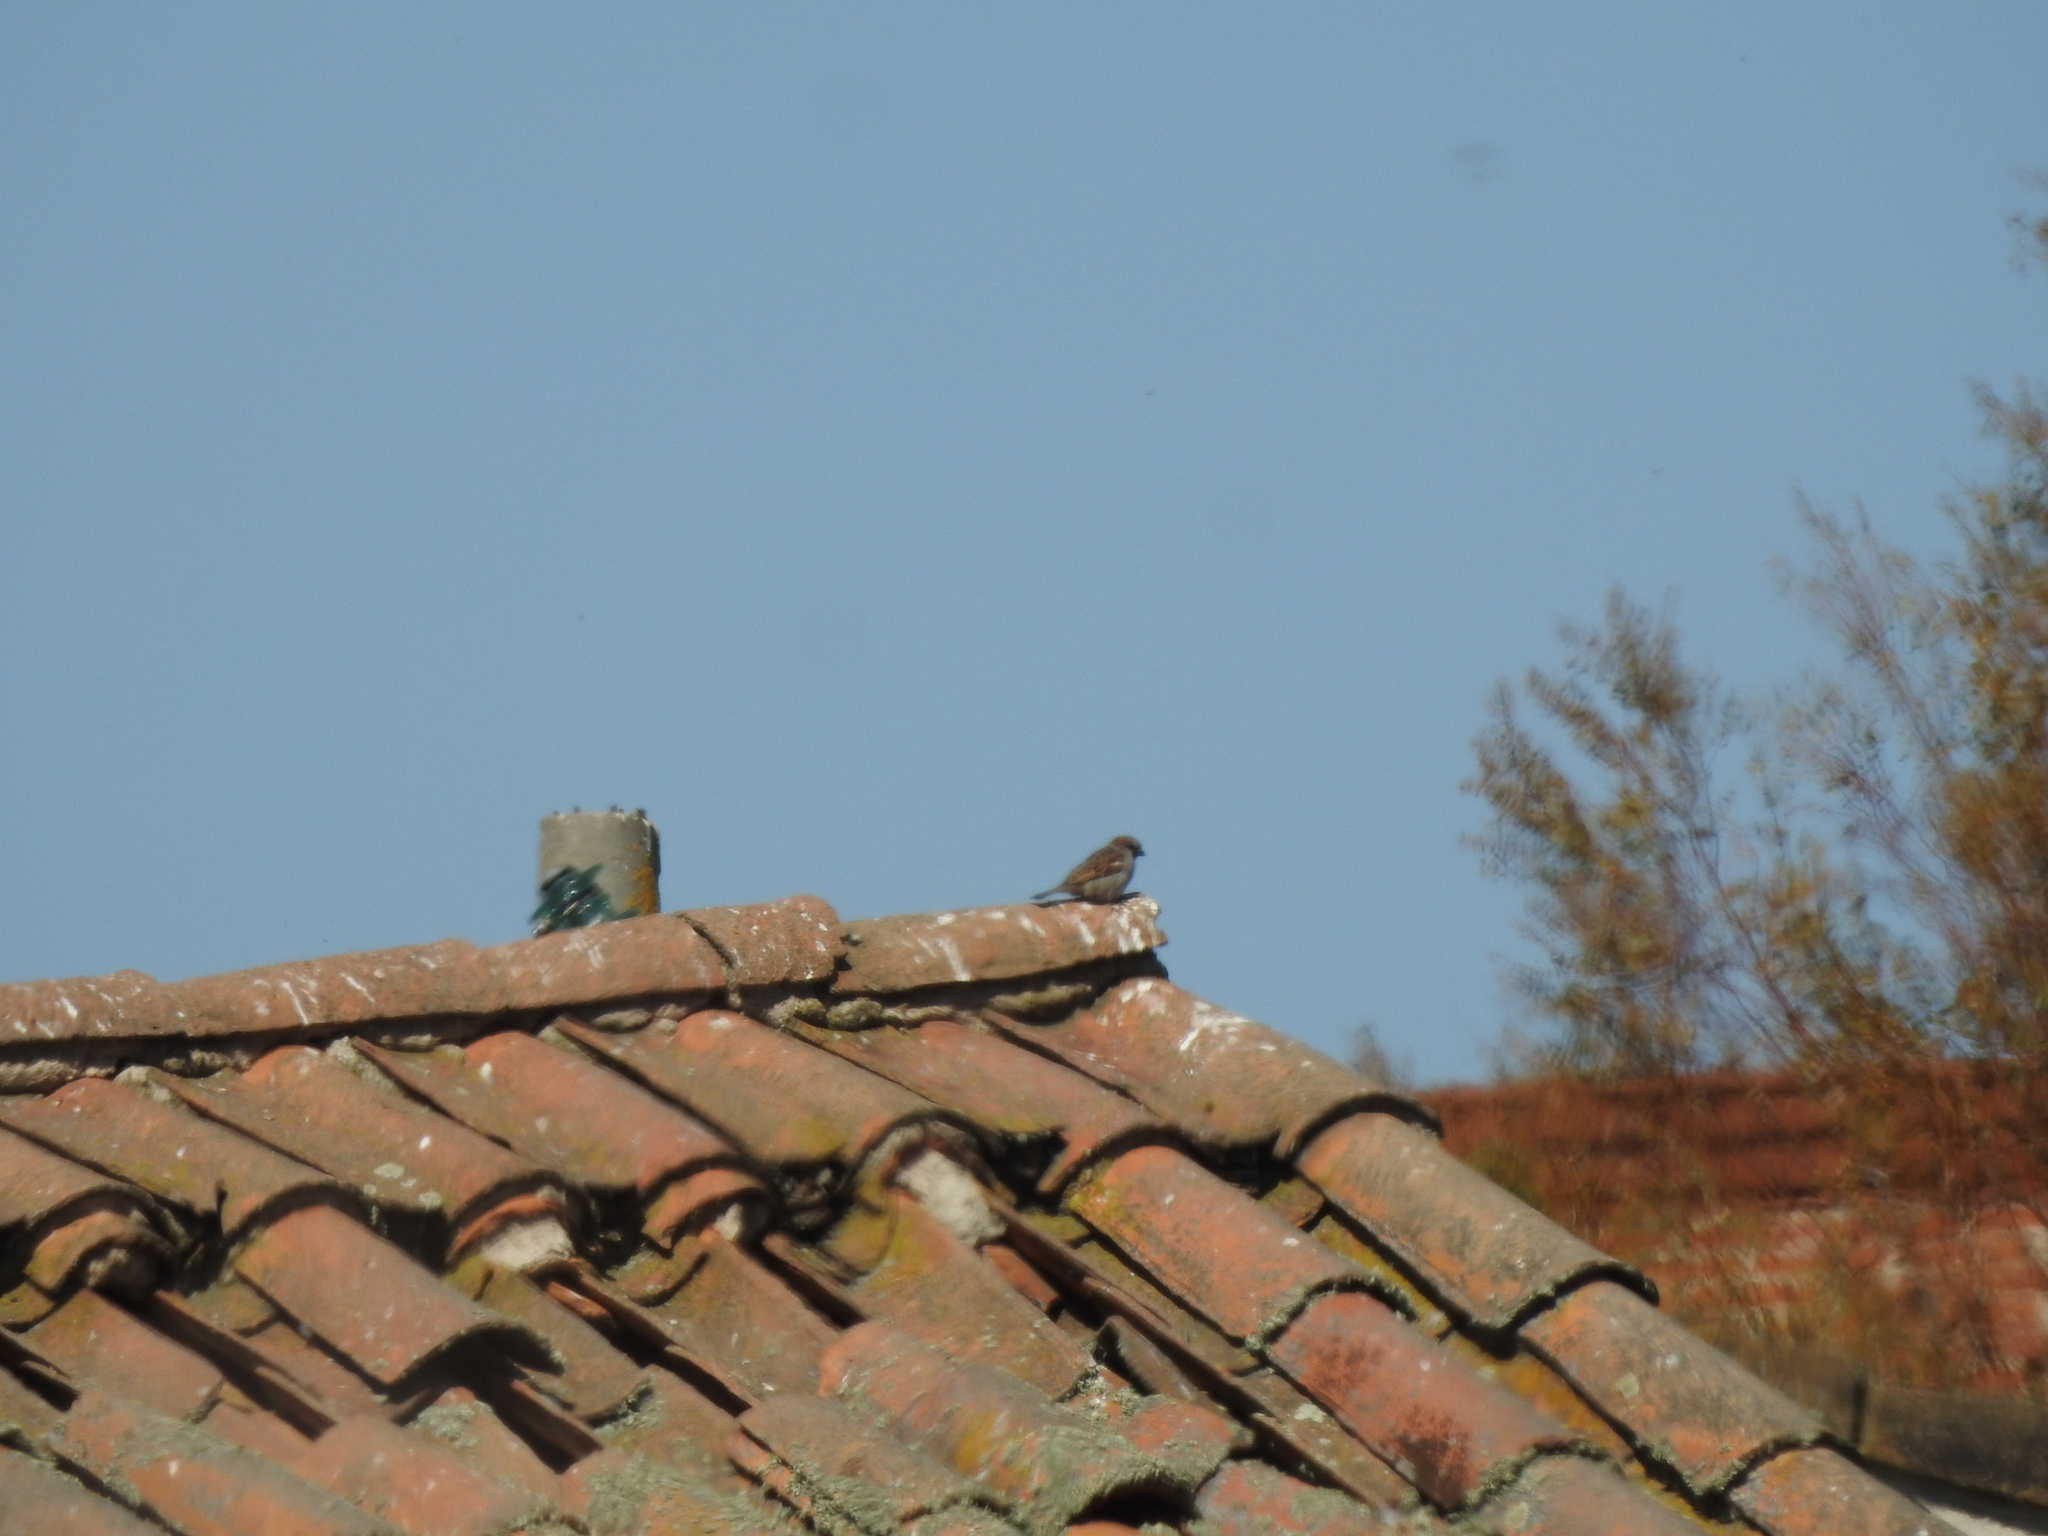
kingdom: Animalia
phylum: Chordata
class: Aves
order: Passeriformes
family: Passeridae
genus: Passer
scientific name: Passer domesticus
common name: House sparrow
